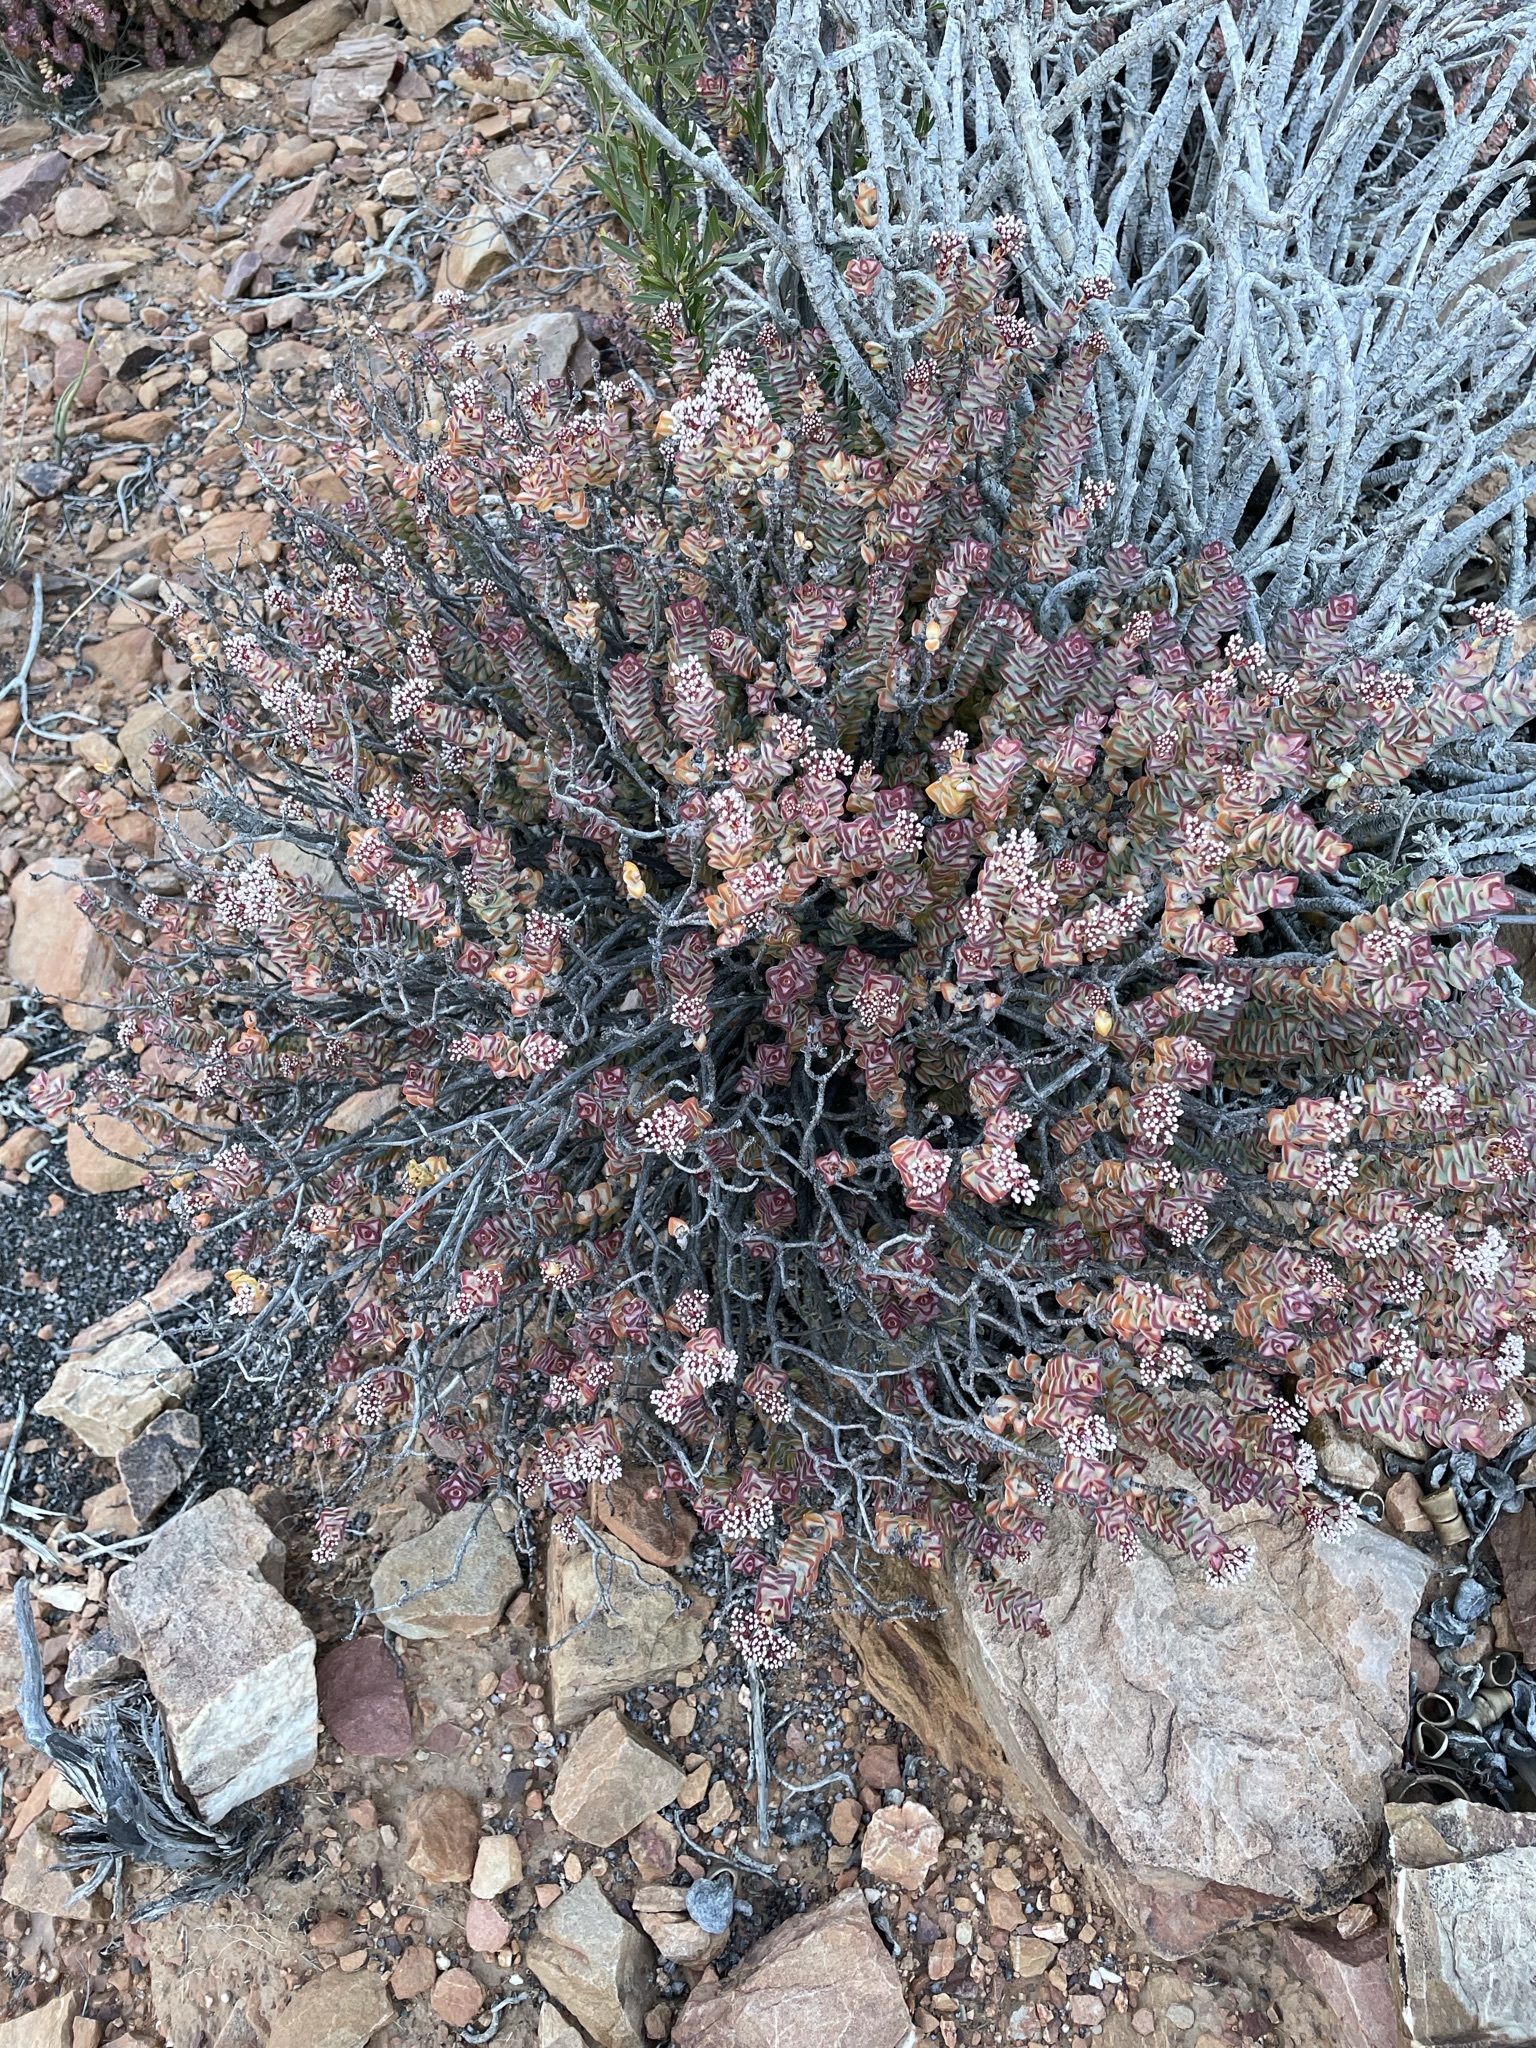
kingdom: Plantae
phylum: Tracheophyta
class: Magnoliopsida
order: Saxifragales
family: Crassulaceae
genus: Crassula
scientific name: Crassula rupestris
